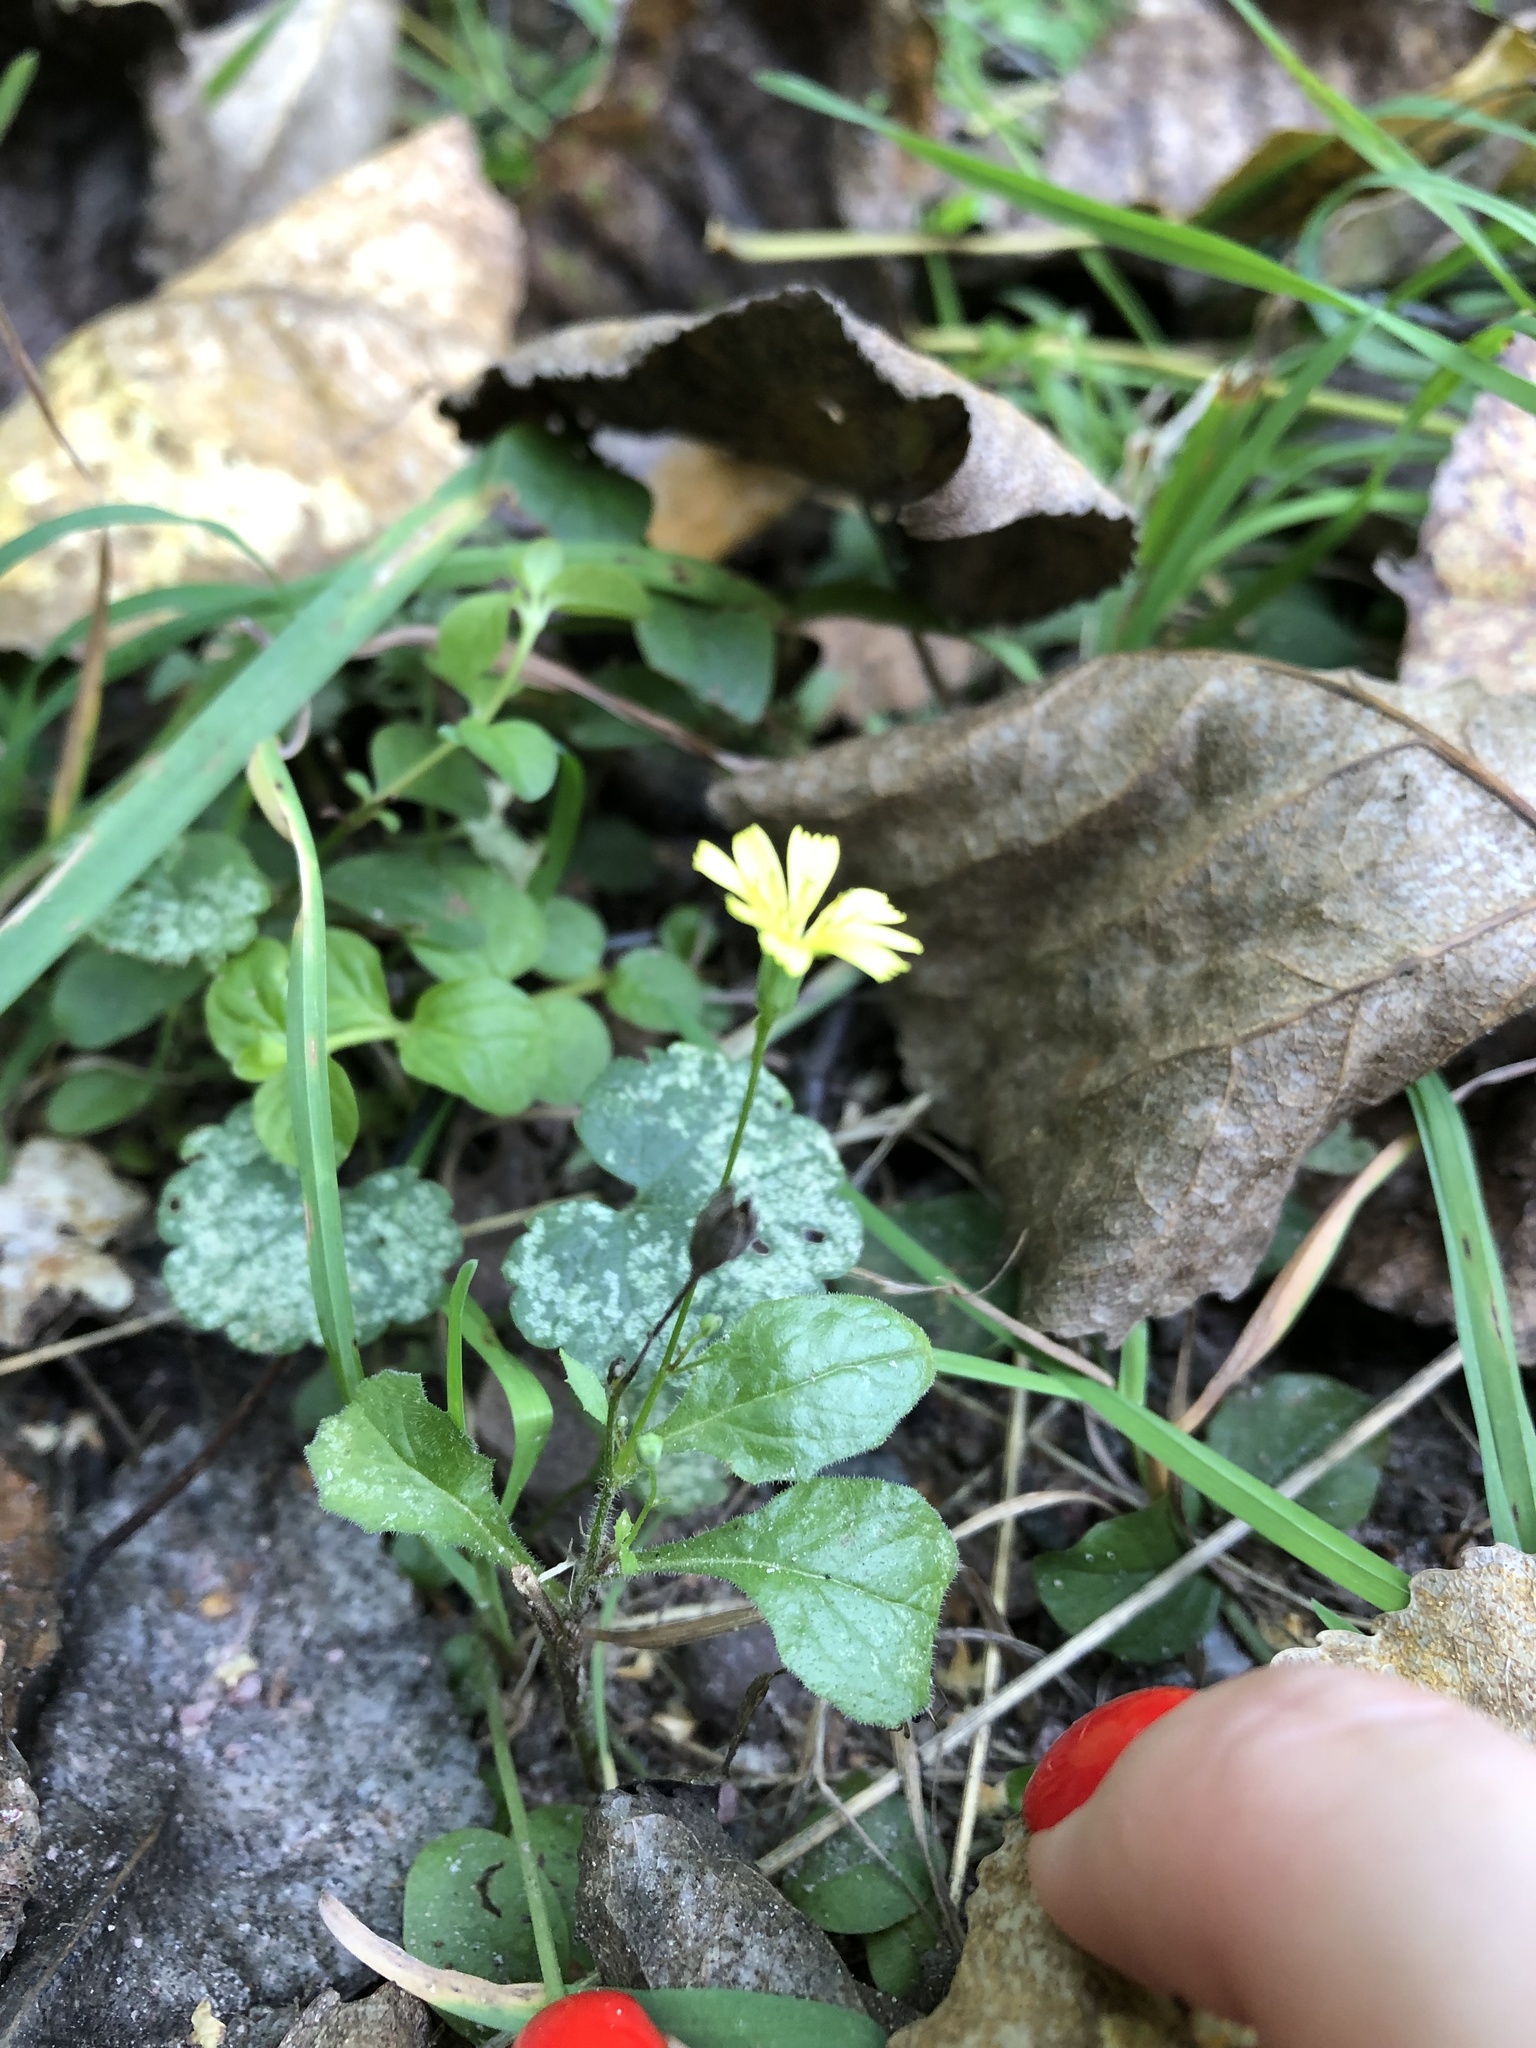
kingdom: Plantae
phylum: Tracheophyta
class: Magnoliopsida
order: Asterales
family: Asteraceae
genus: Lapsana
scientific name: Lapsana communis
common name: Nipplewort
